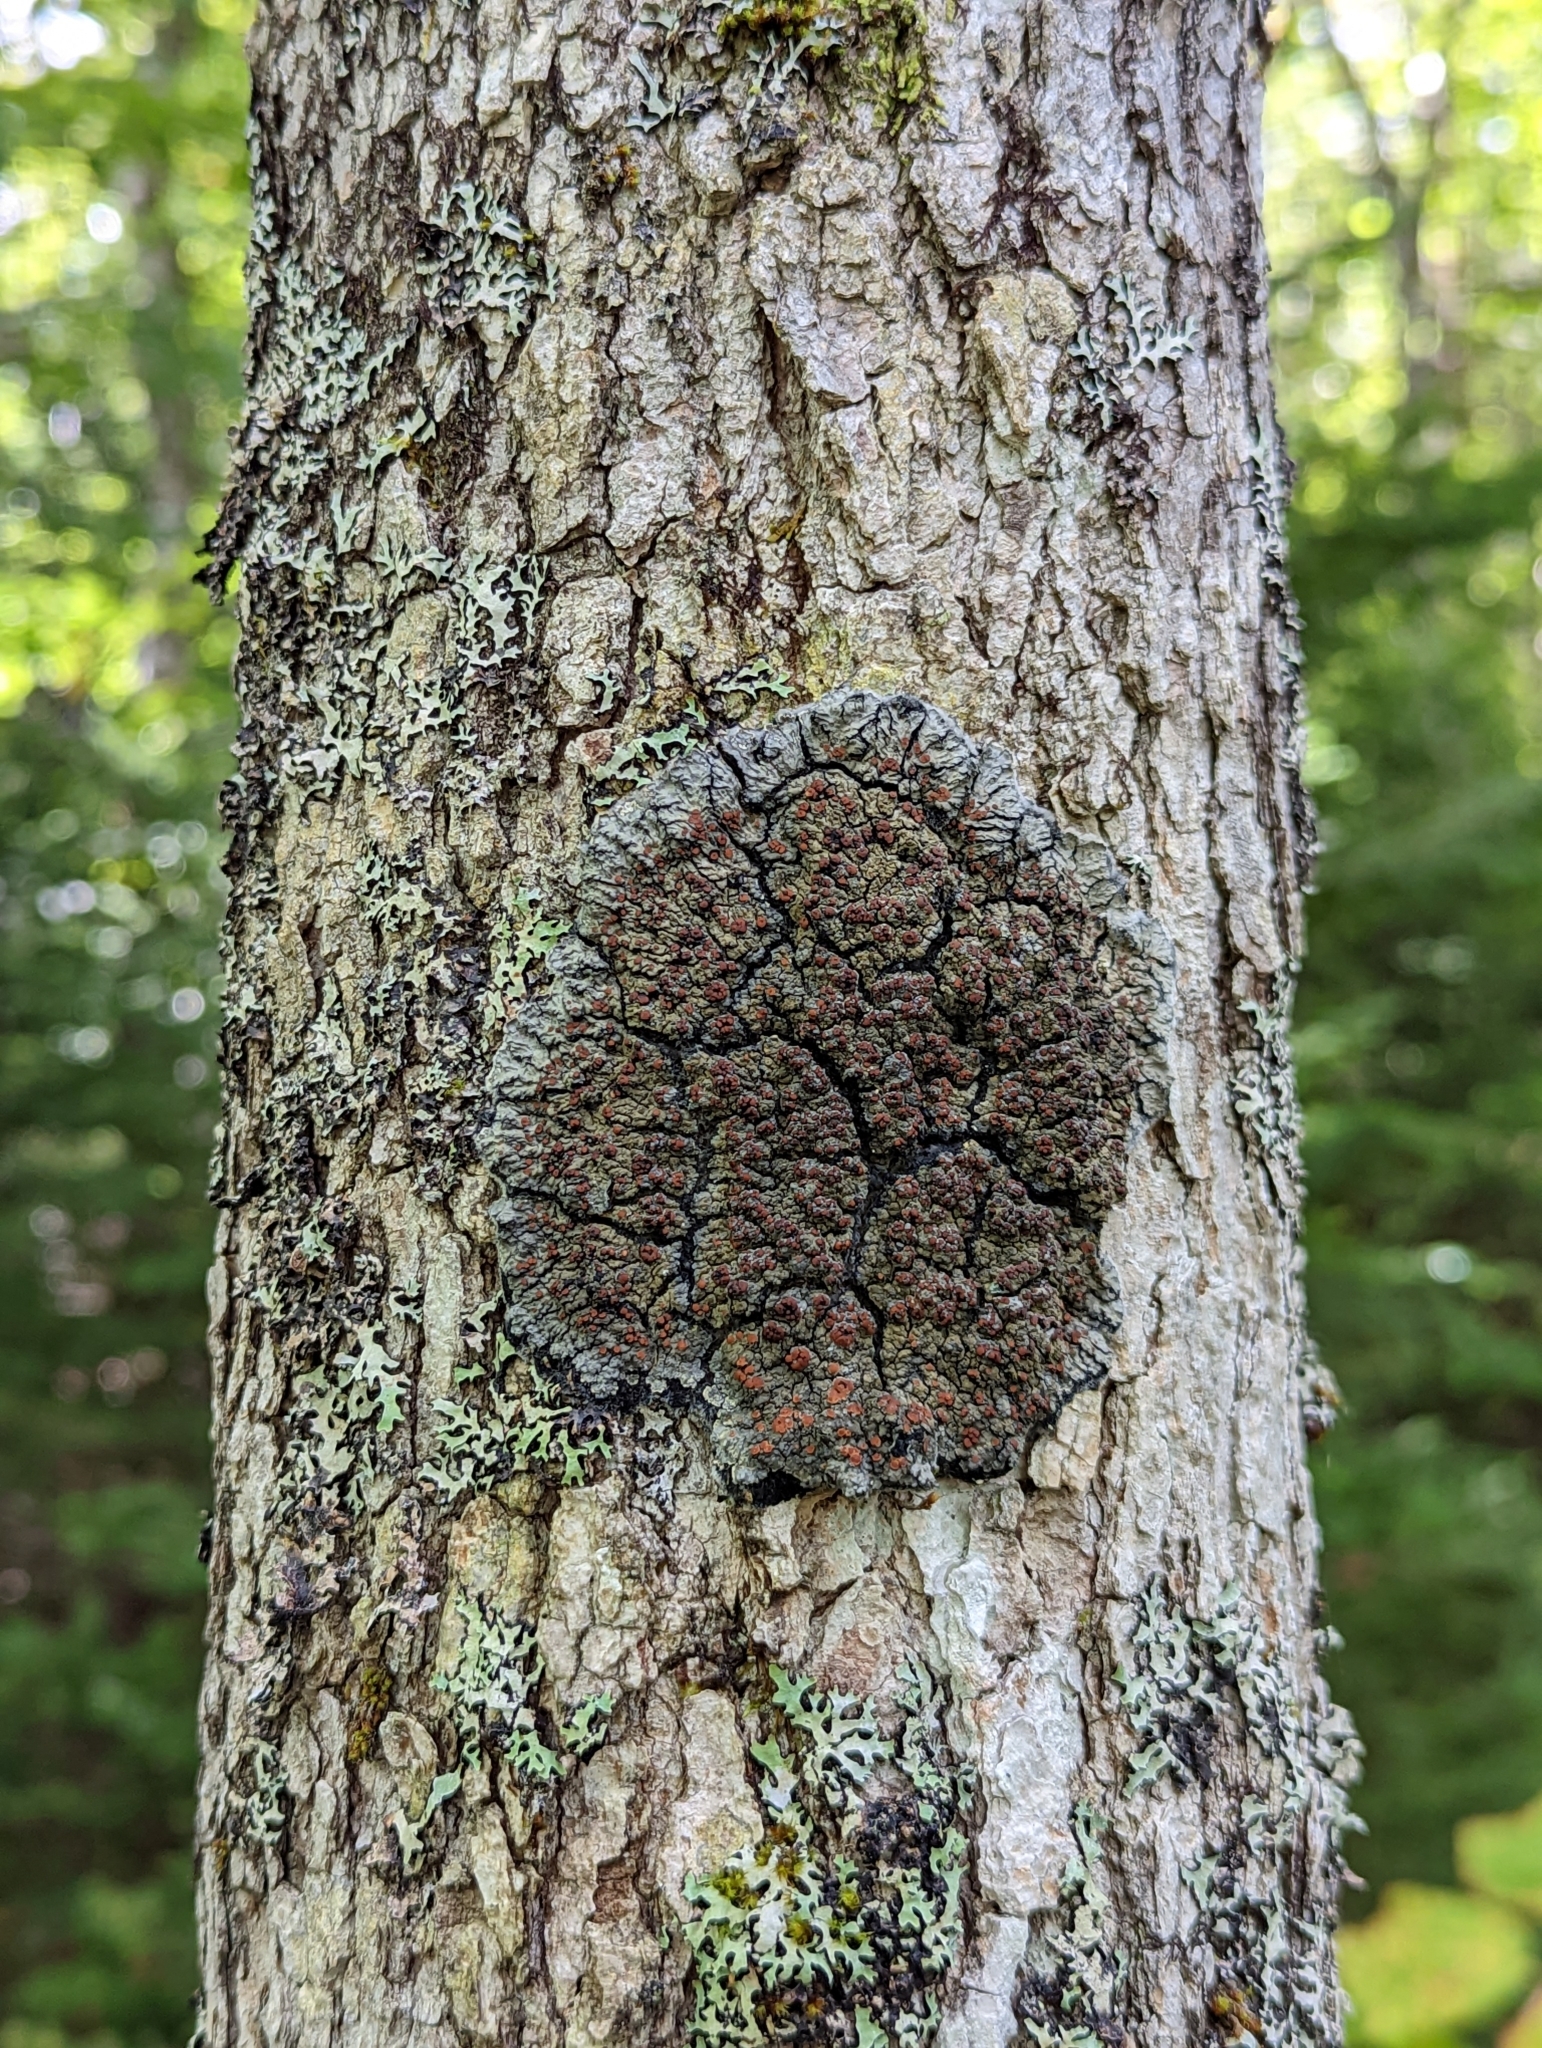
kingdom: Fungi
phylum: Ascomycota
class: Lecanoromycetes
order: Peltigerales
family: Pannariaceae
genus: Pectenia
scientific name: Pectenia plumbea
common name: Bladder stalks
